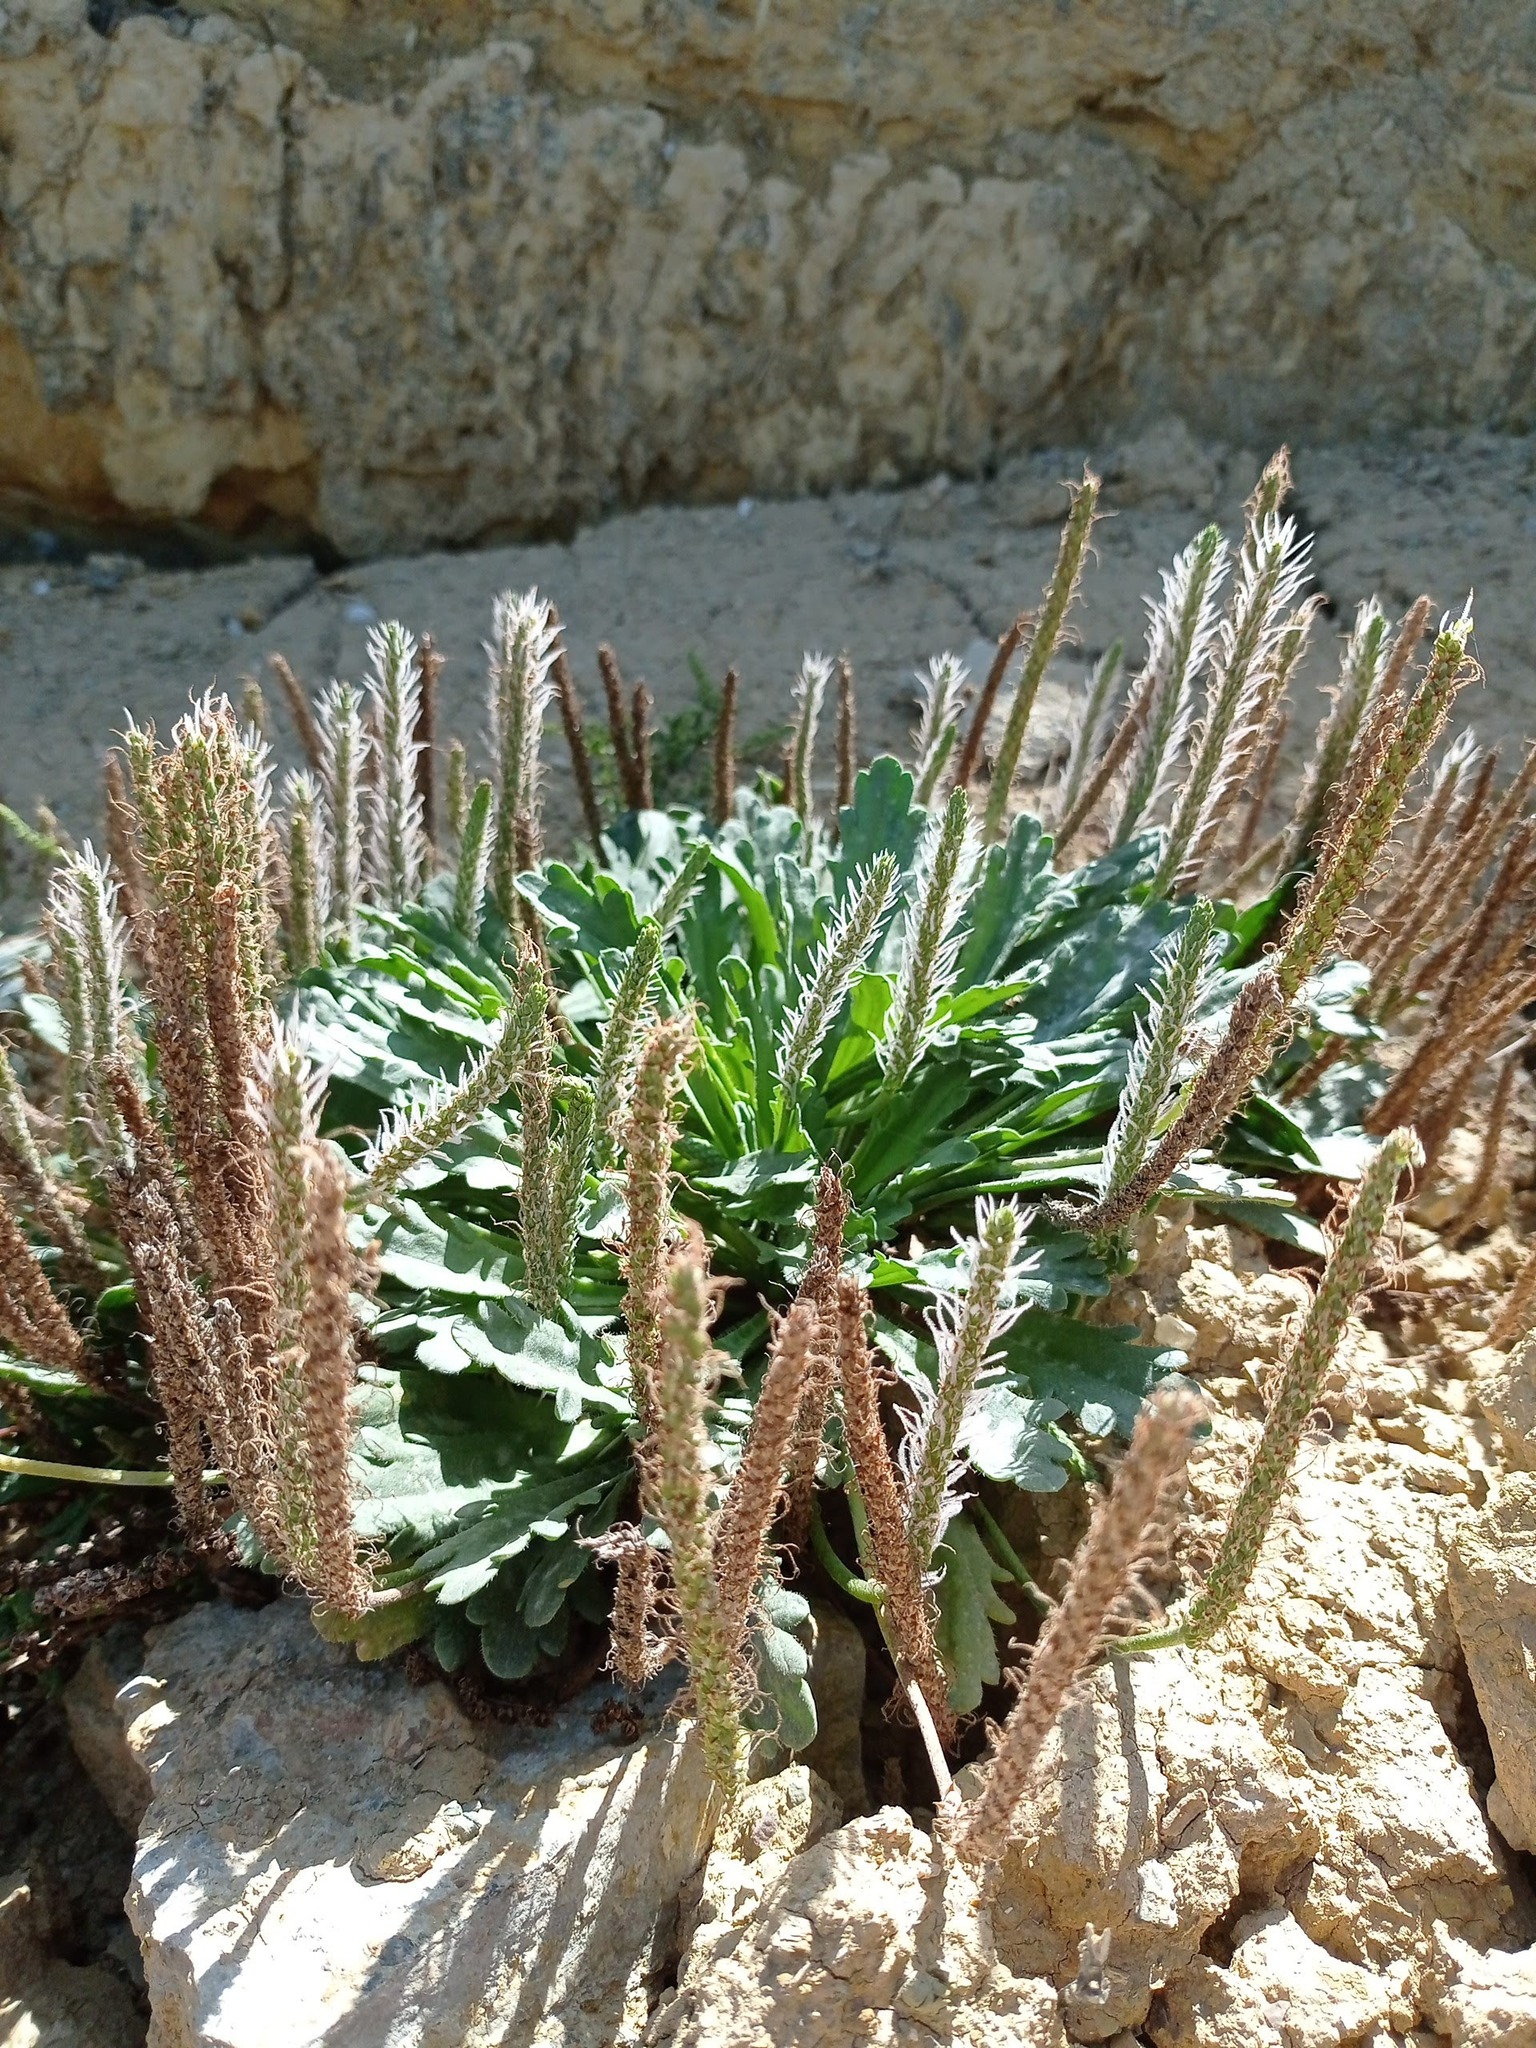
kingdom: Plantae
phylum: Tracheophyta
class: Magnoliopsida
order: Lamiales
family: Plantaginaceae
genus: Plantago
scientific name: Plantago coronopus
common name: Buck's-horn plantain
